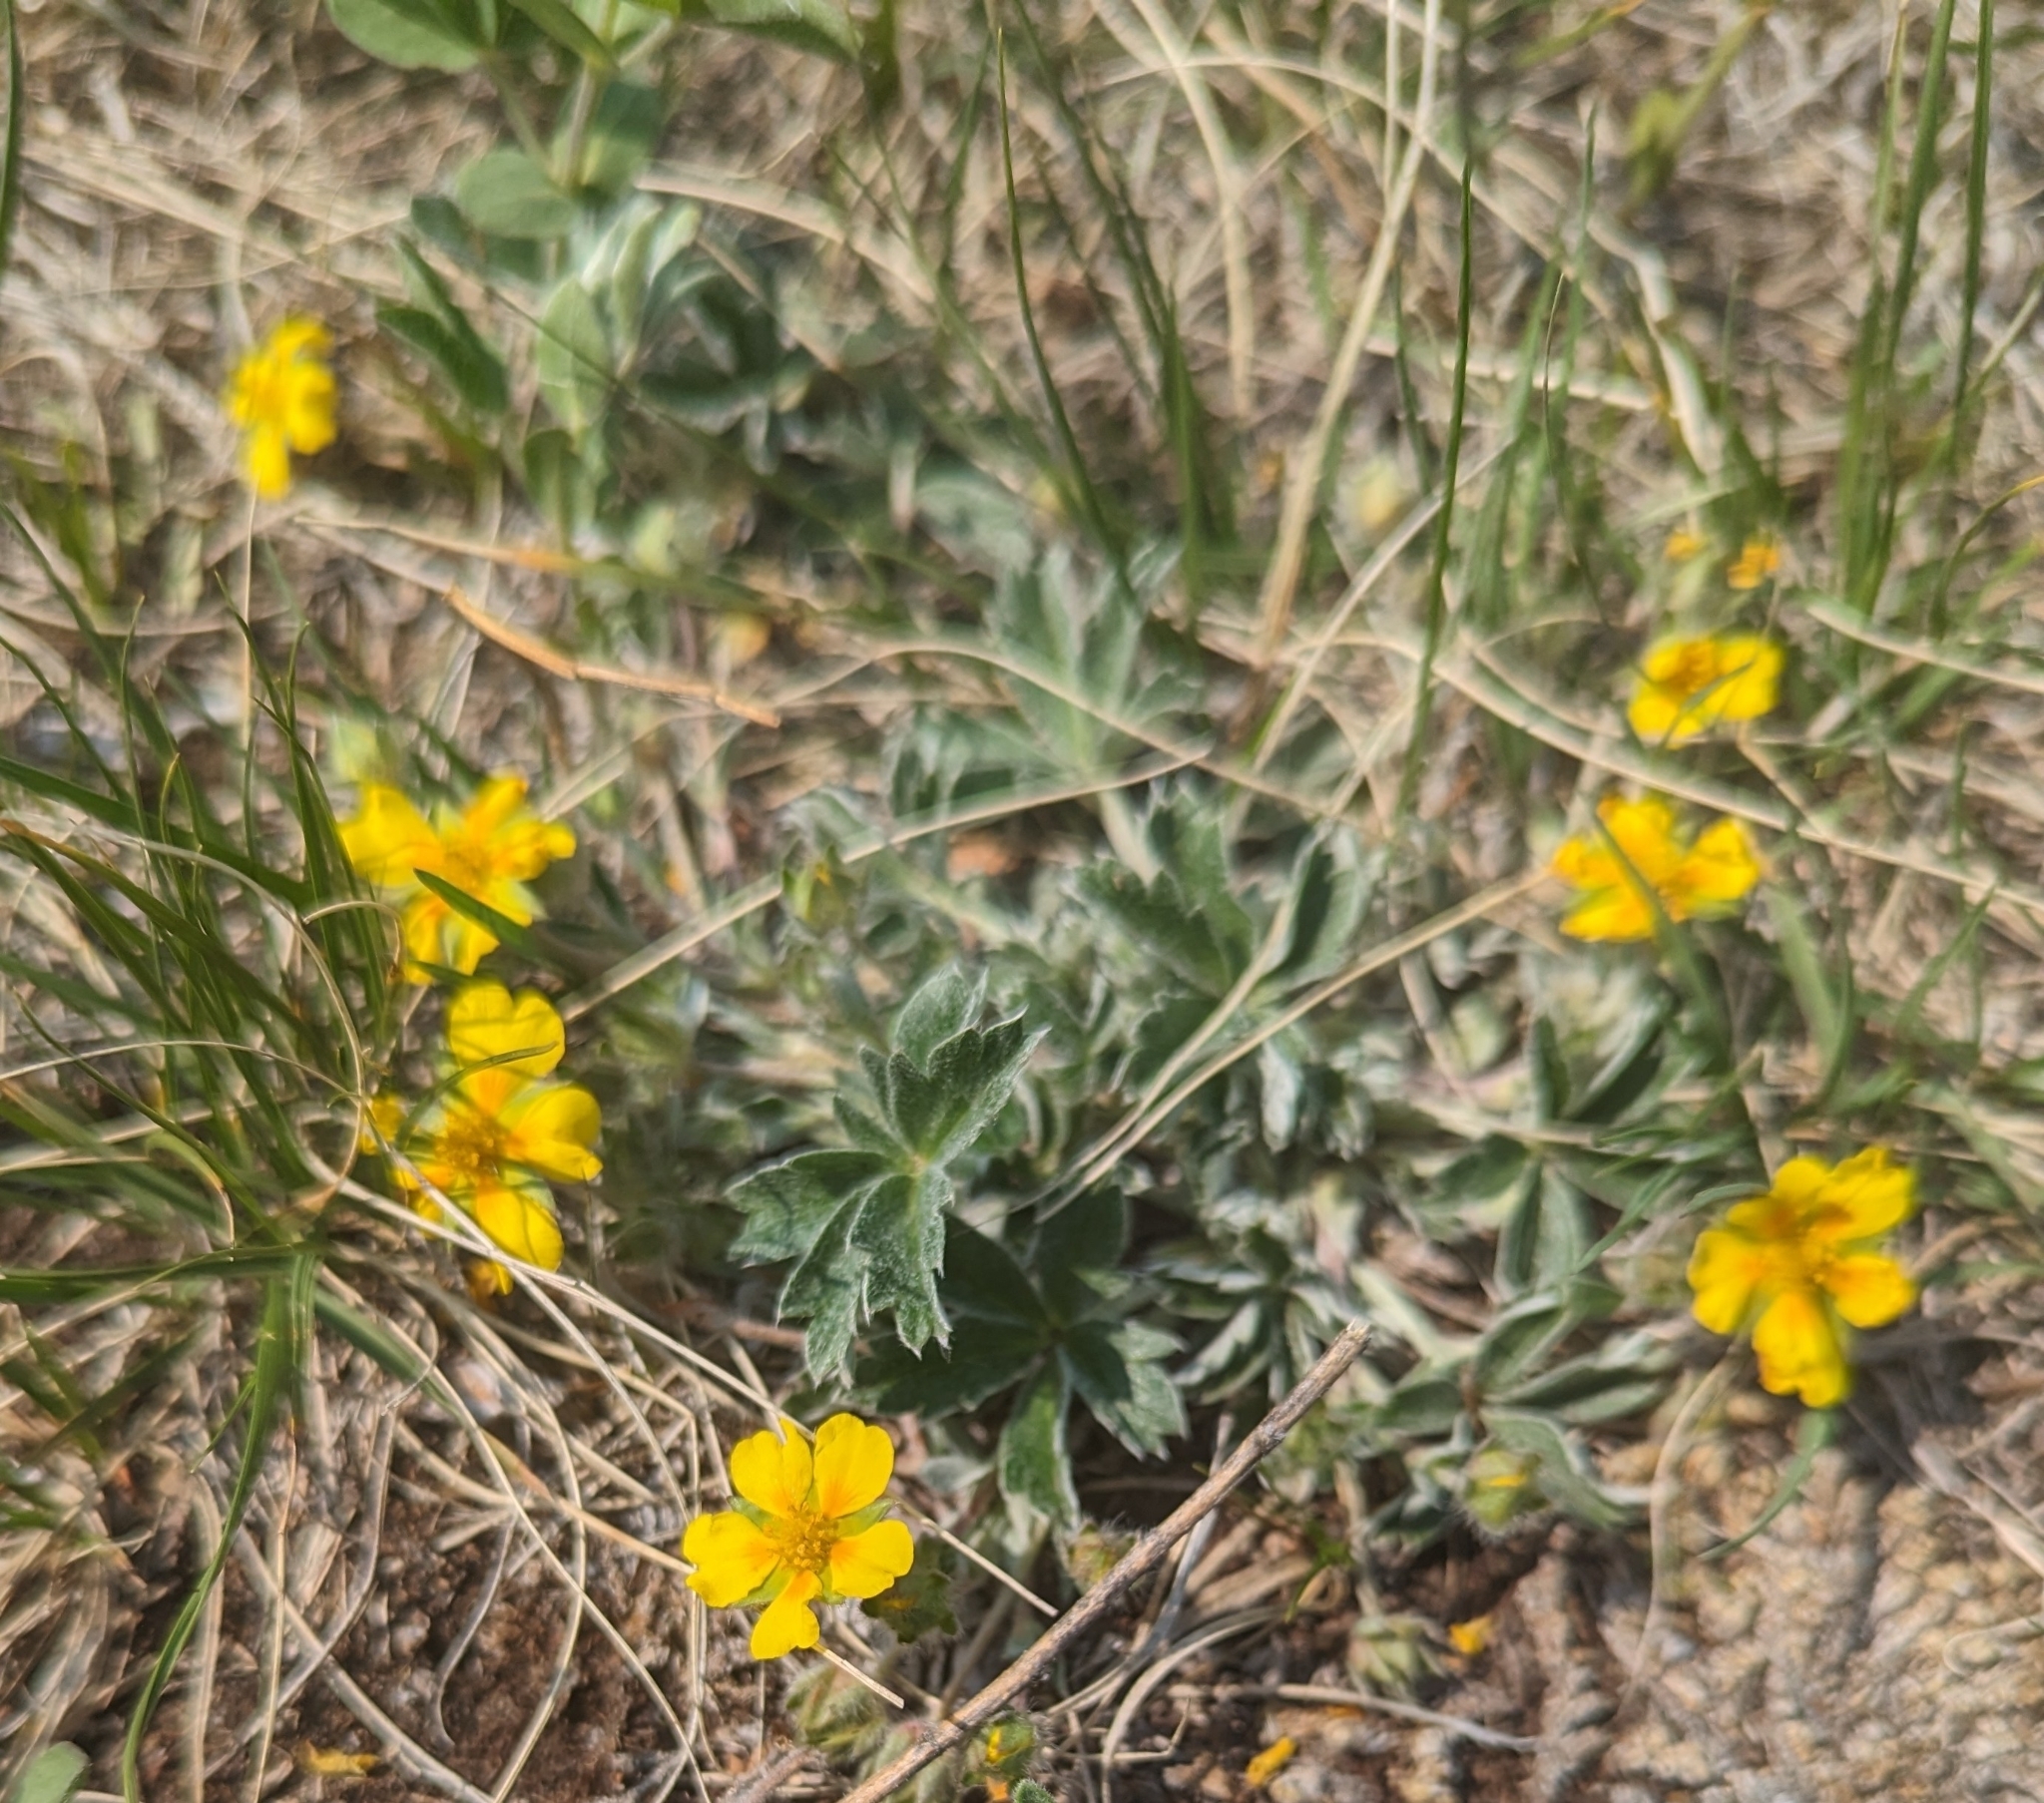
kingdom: Plantae
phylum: Tracheophyta
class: Magnoliopsida
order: Rosales
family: Rosaceae
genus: Potentilla
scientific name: Potentilla concinna
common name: Early cinquefoil
